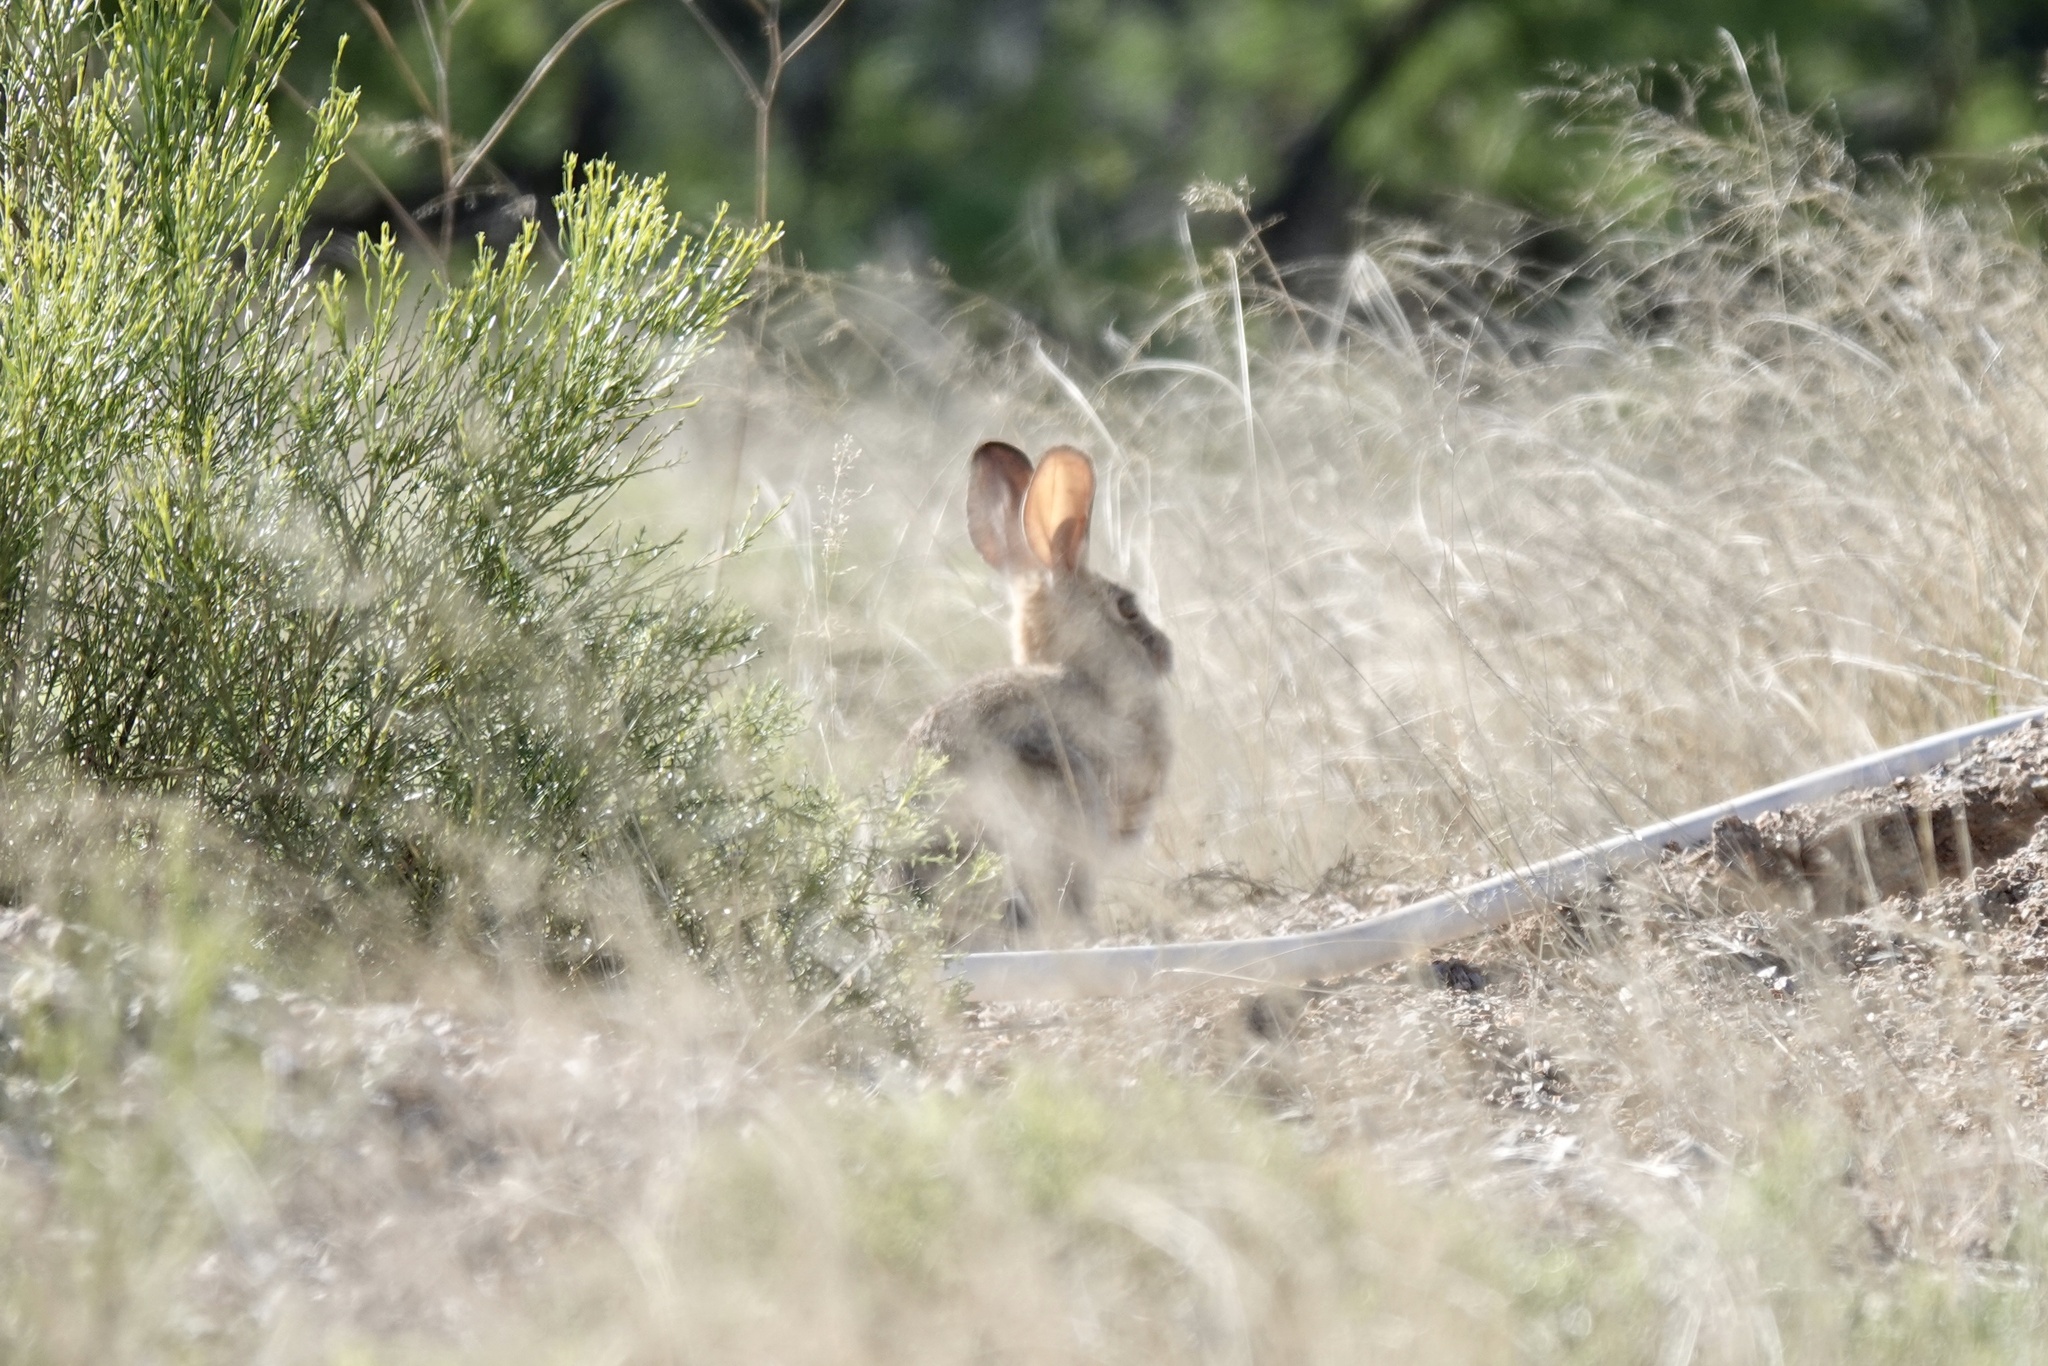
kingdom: Animalia
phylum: Chordata
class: Mammalia
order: Lagomorpha
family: Leporidae
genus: Sylvilagus
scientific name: Sylvilagus audubonii
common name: Desert cottontail
